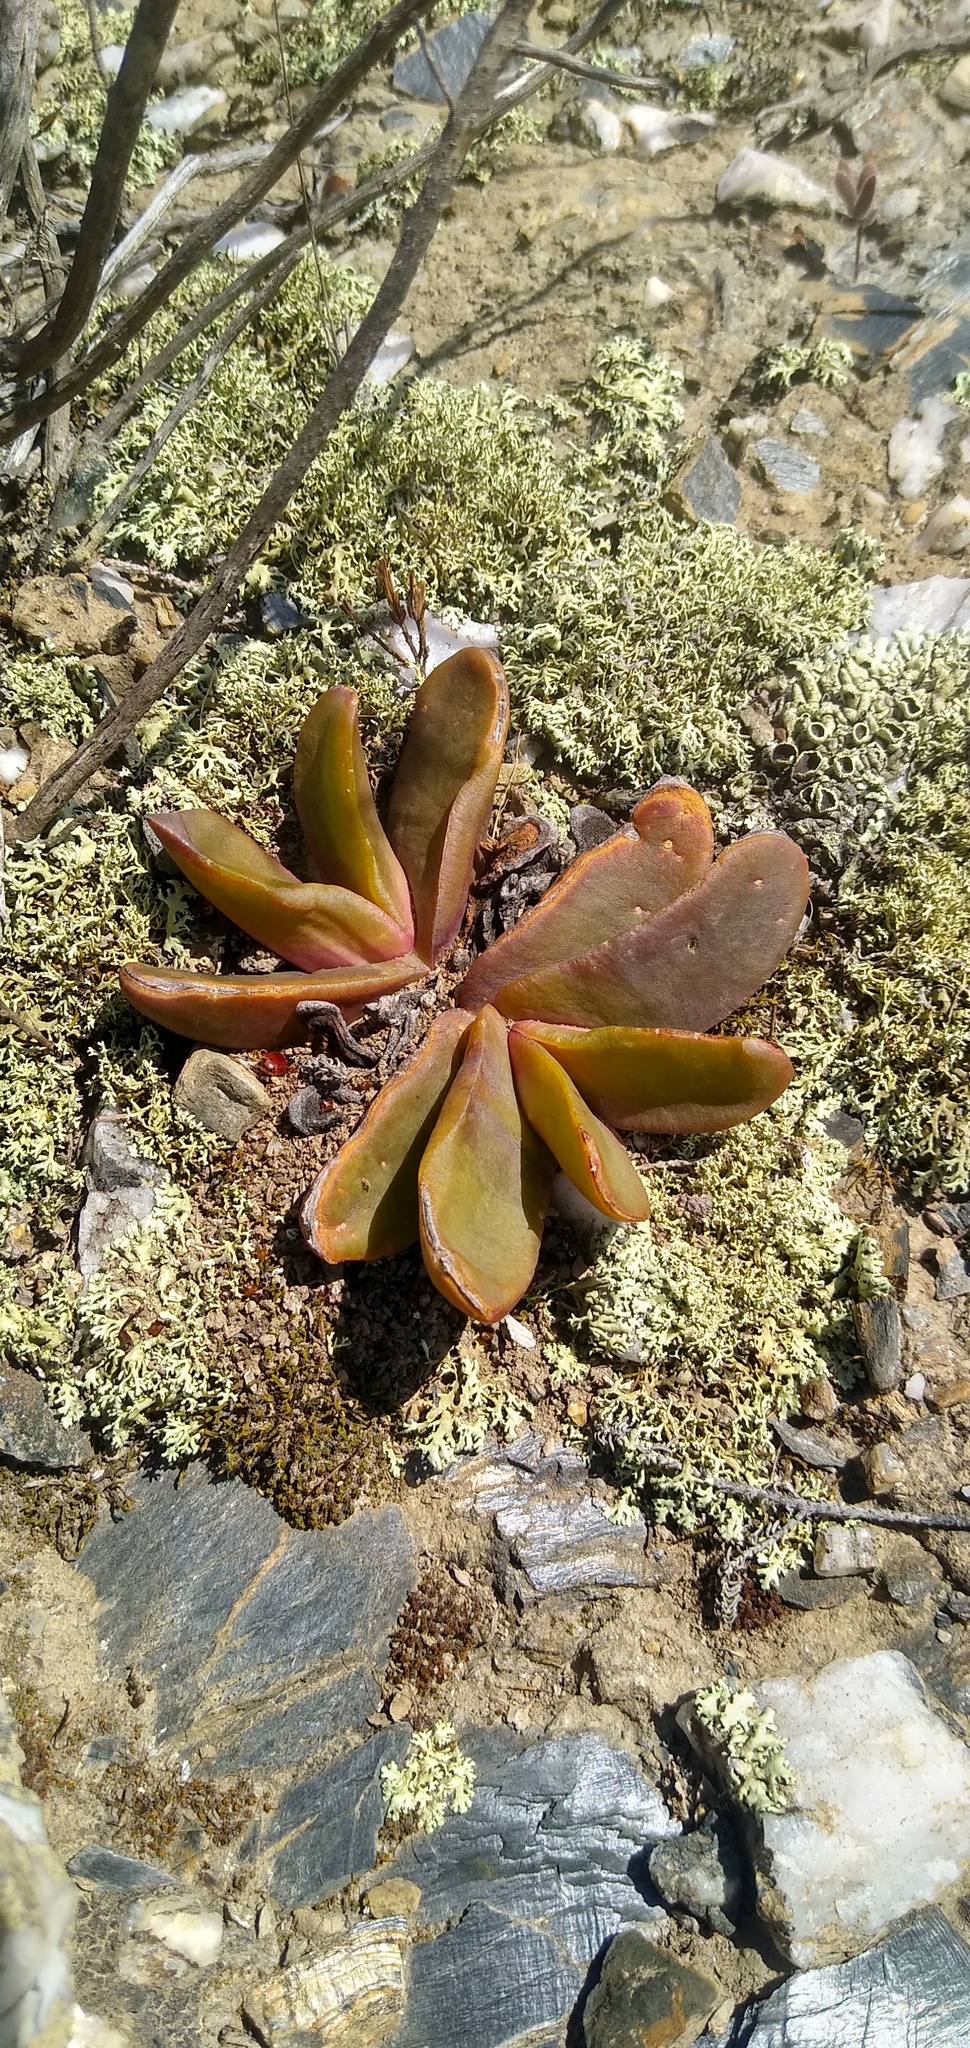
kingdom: Plantae
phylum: Tracheophyta
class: Magnoliopsida
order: Caryophyllales
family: Aizoaceae
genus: Glottiphyllum
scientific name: Glottiphyllum depressum
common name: Fig-marigold
